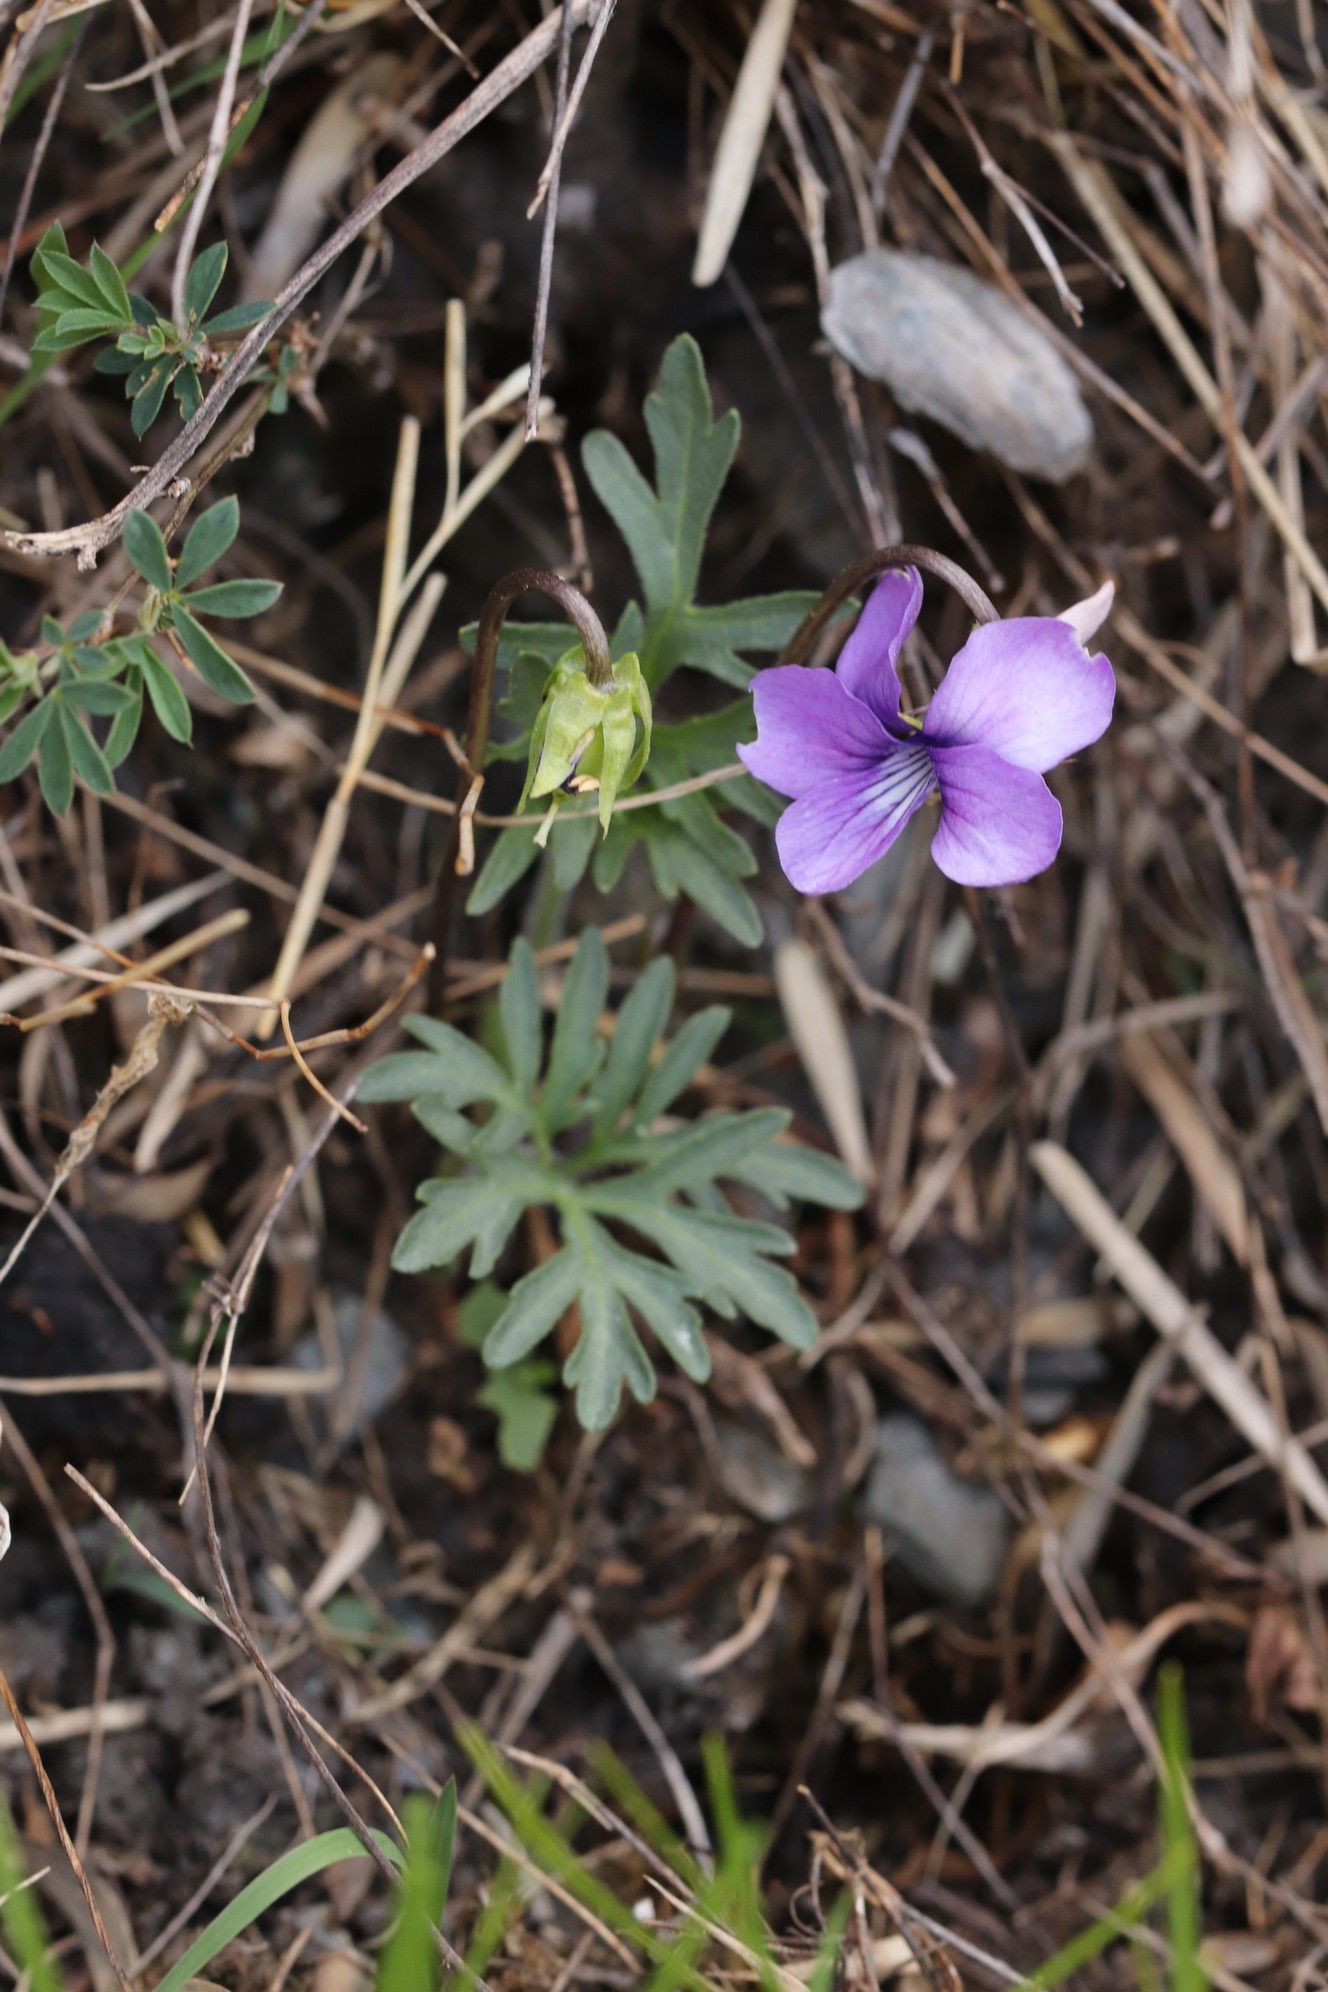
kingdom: Plantae
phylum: Tracheophyta
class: Magnoliopsida
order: Malpighiales
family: Violaceae
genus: Viola
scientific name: Viola multifida
